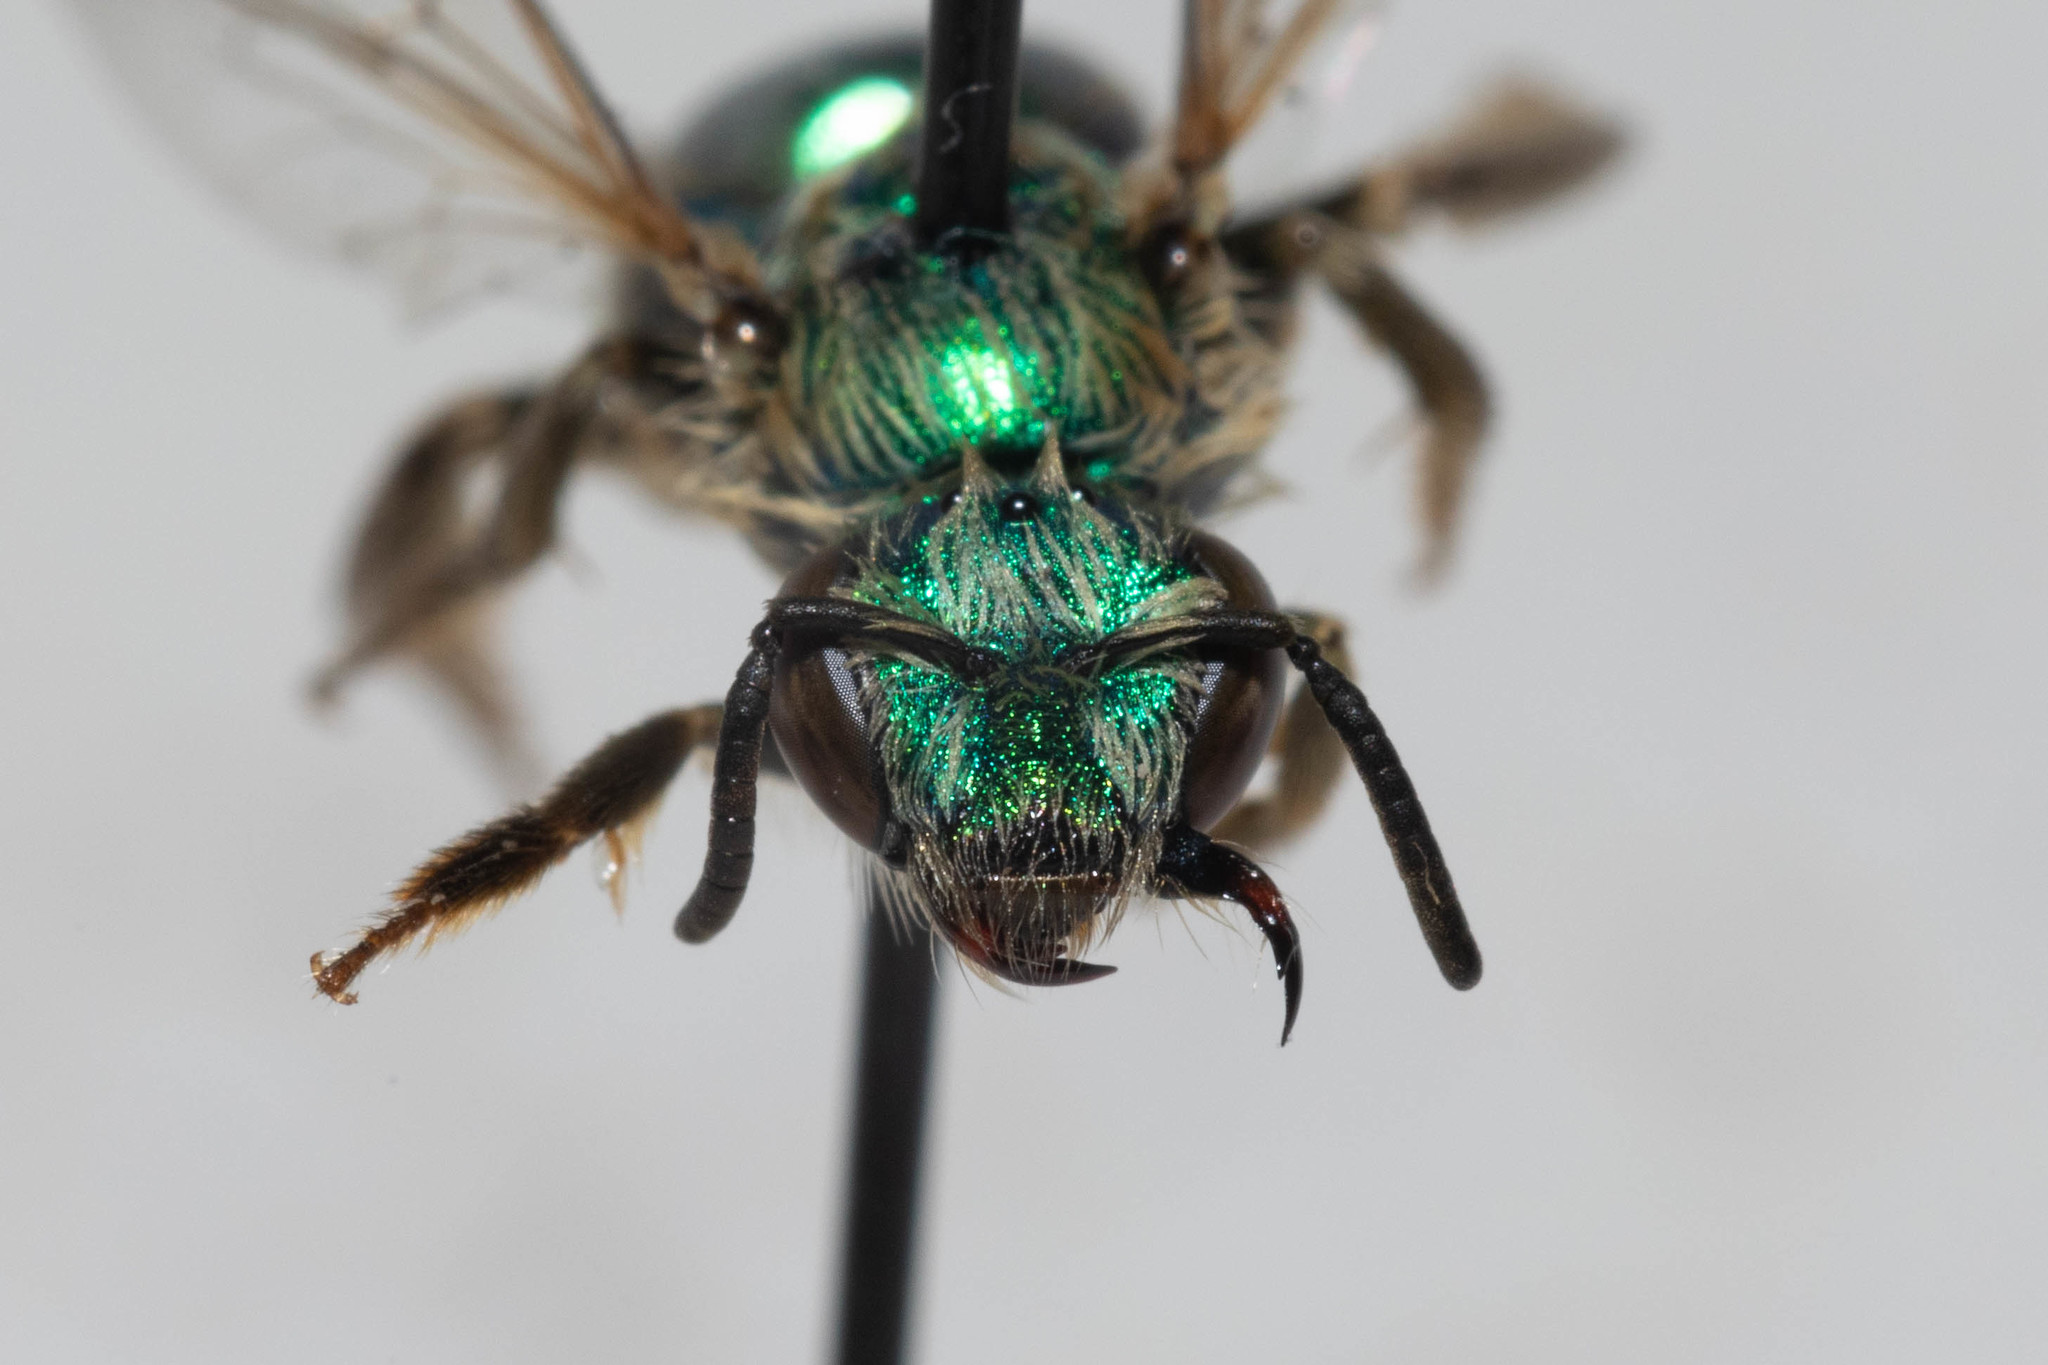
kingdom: Animalia
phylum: Arthropoda
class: Insecta
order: Hymenoptera
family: Halictidae
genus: Agapostemon
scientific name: Agapostemon texanus
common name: Texas striped sweat bee
